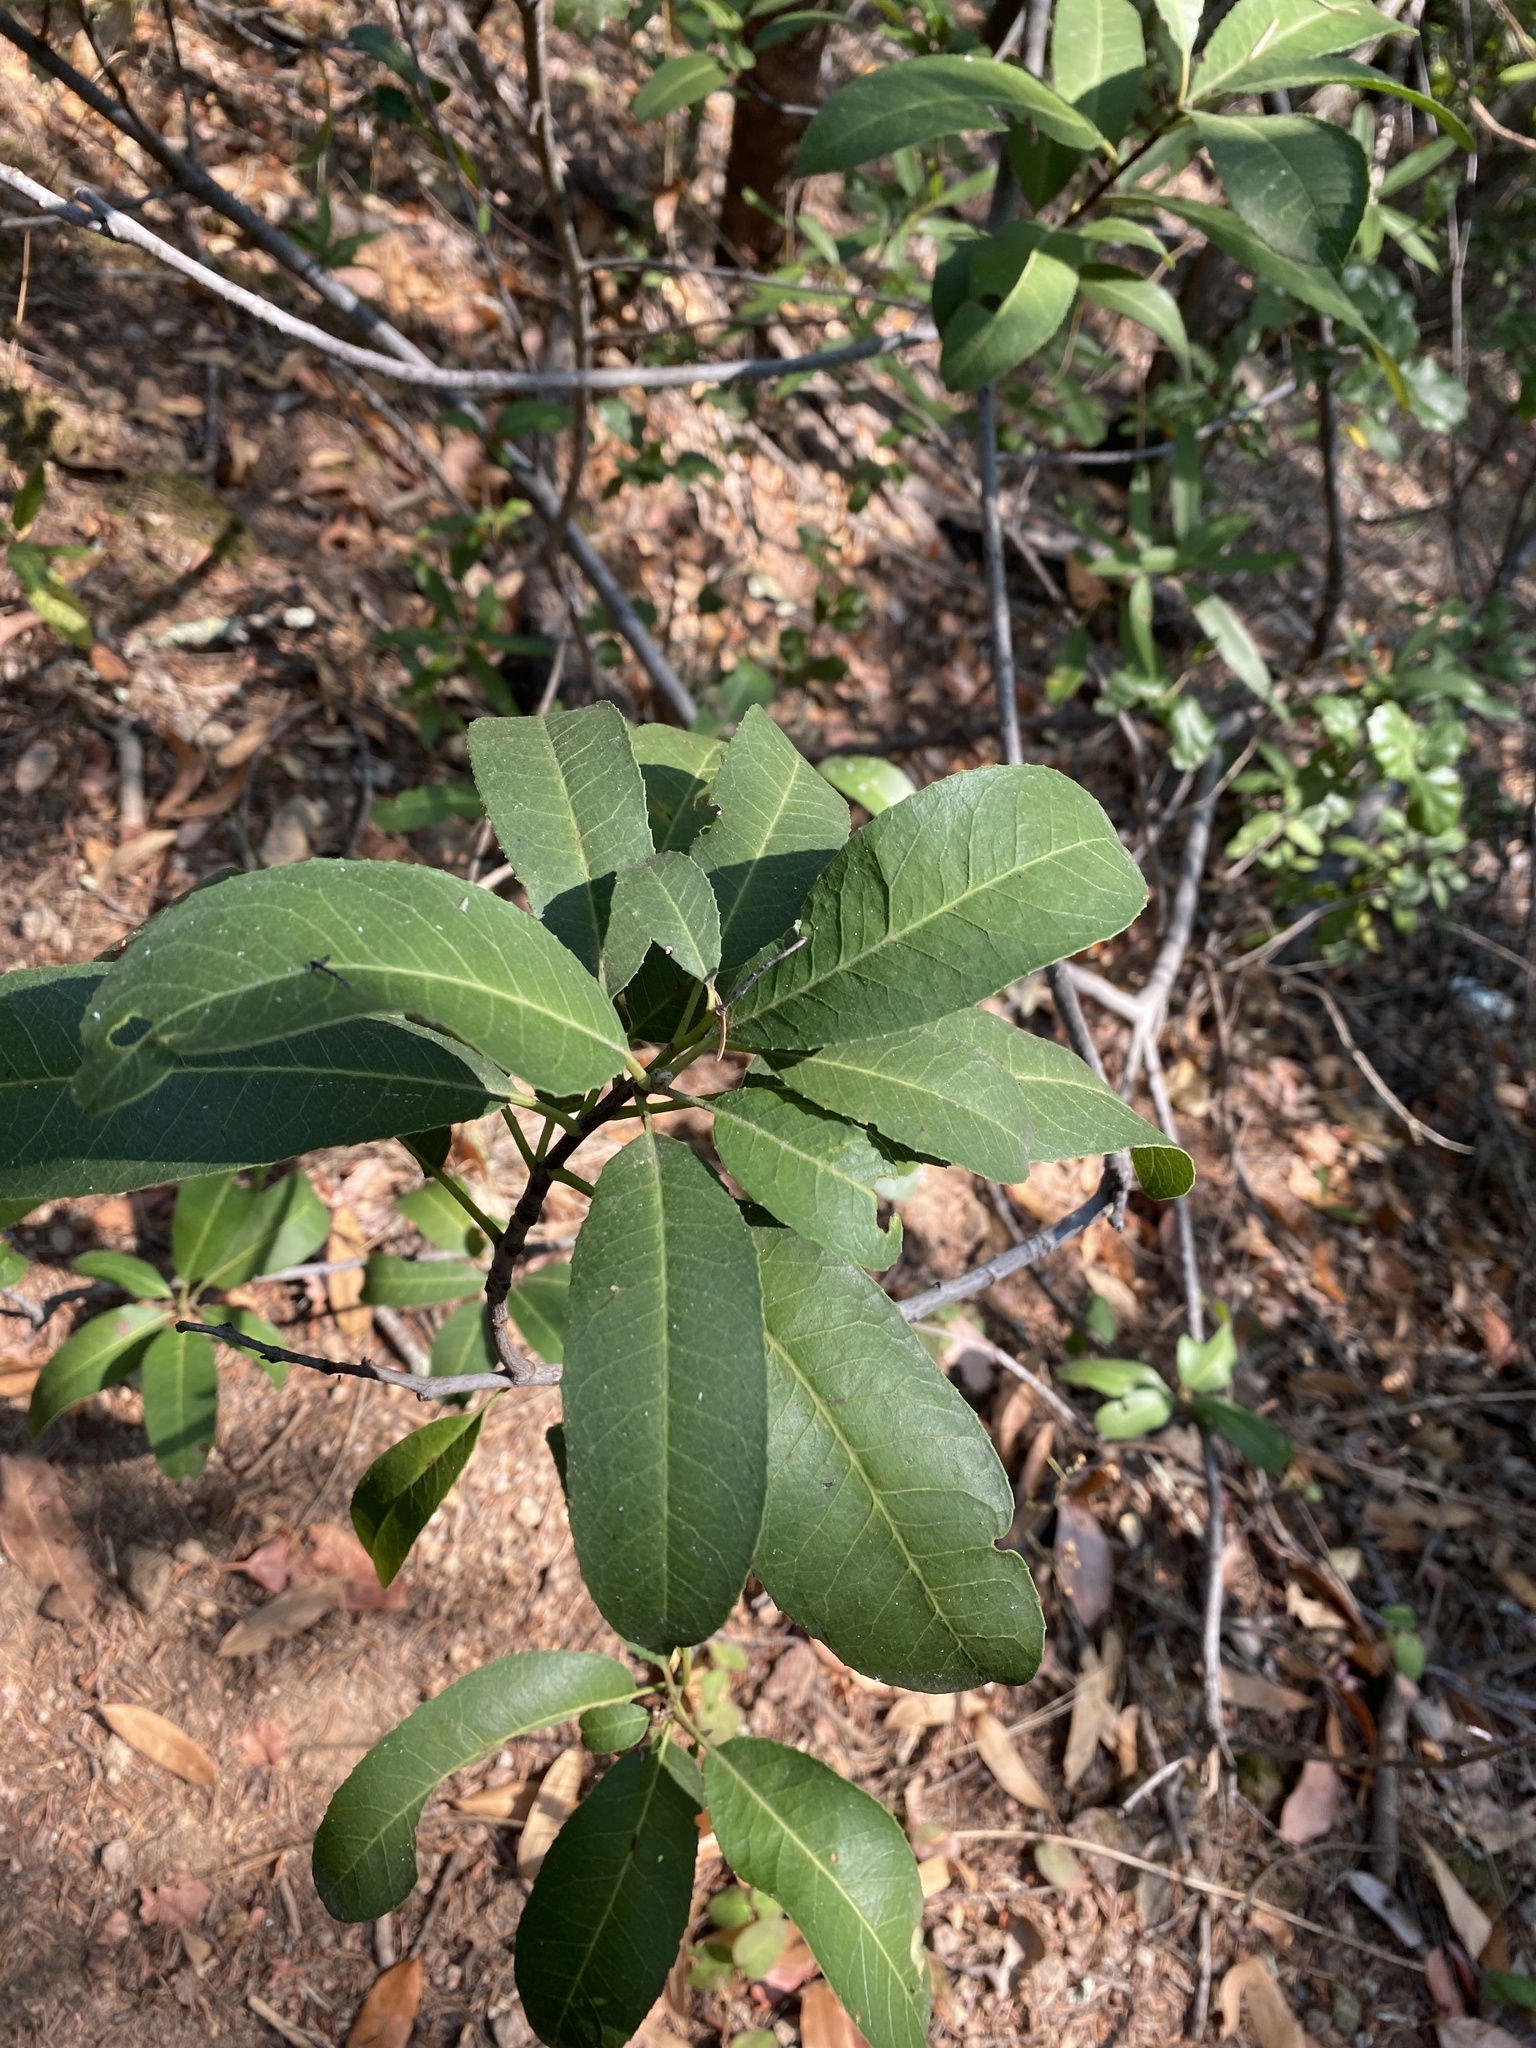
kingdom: Plantae
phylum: Tracheophyta
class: Magnoliopsida
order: Rosales
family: Rosaceae
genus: Heteromeles
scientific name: Heteromeles arbutifolia
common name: California-holly
